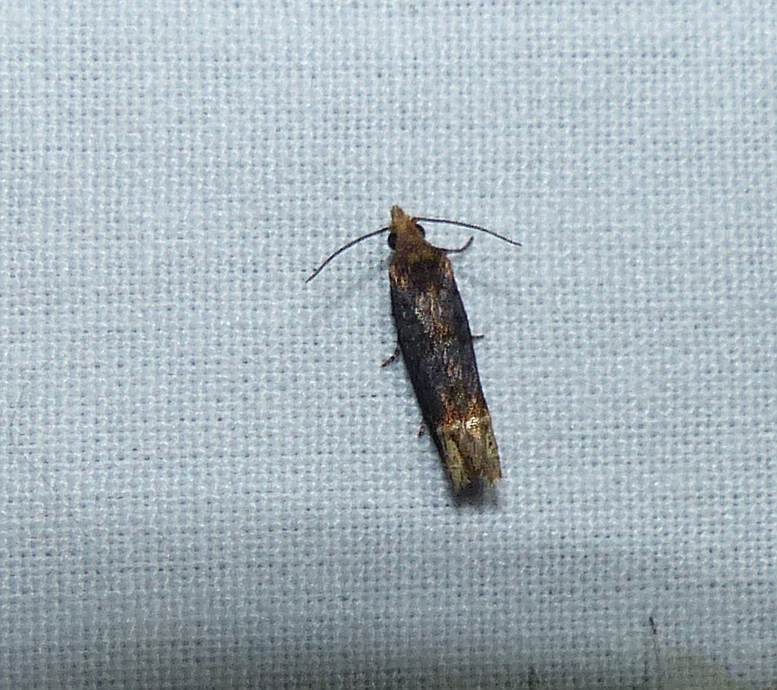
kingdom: Animalia
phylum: Arthropoda
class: Insecta
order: Lepidoptera
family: Tortricidae
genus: Eucosma
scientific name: Eucosma ochroterminana
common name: Buff-tipped eucosma moth
